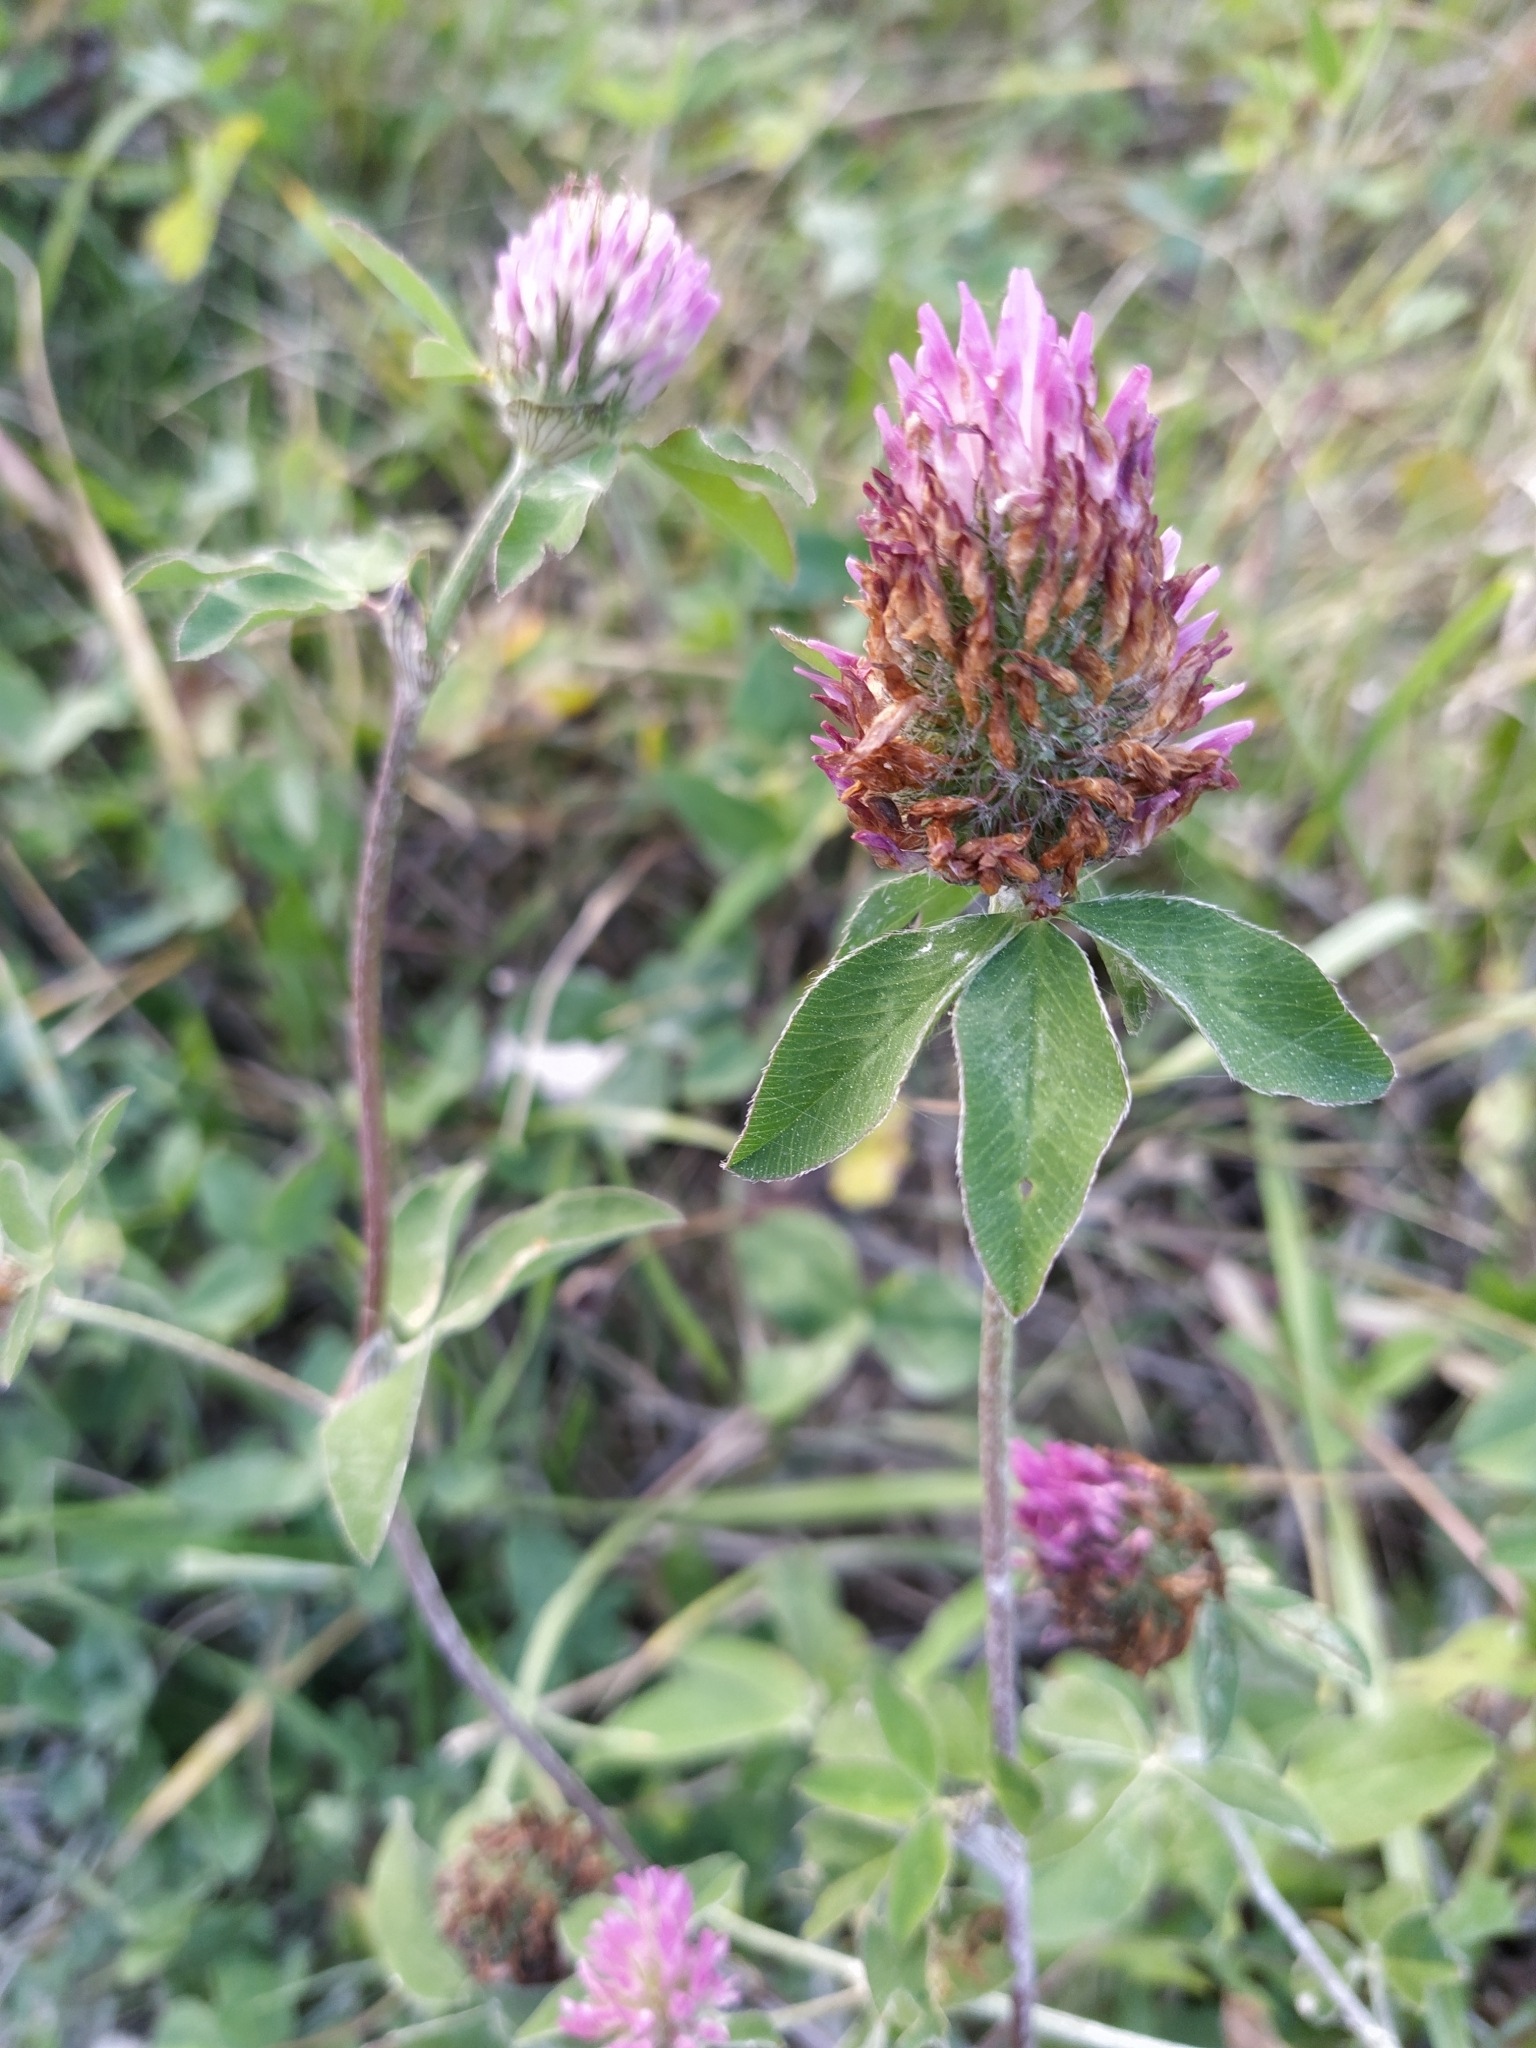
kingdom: Plantae
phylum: Tracheophyta
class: Magnoliopsida
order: Fabales
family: Fabaceae
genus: Trifolium
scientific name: Trifolium pratense
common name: Red clover
